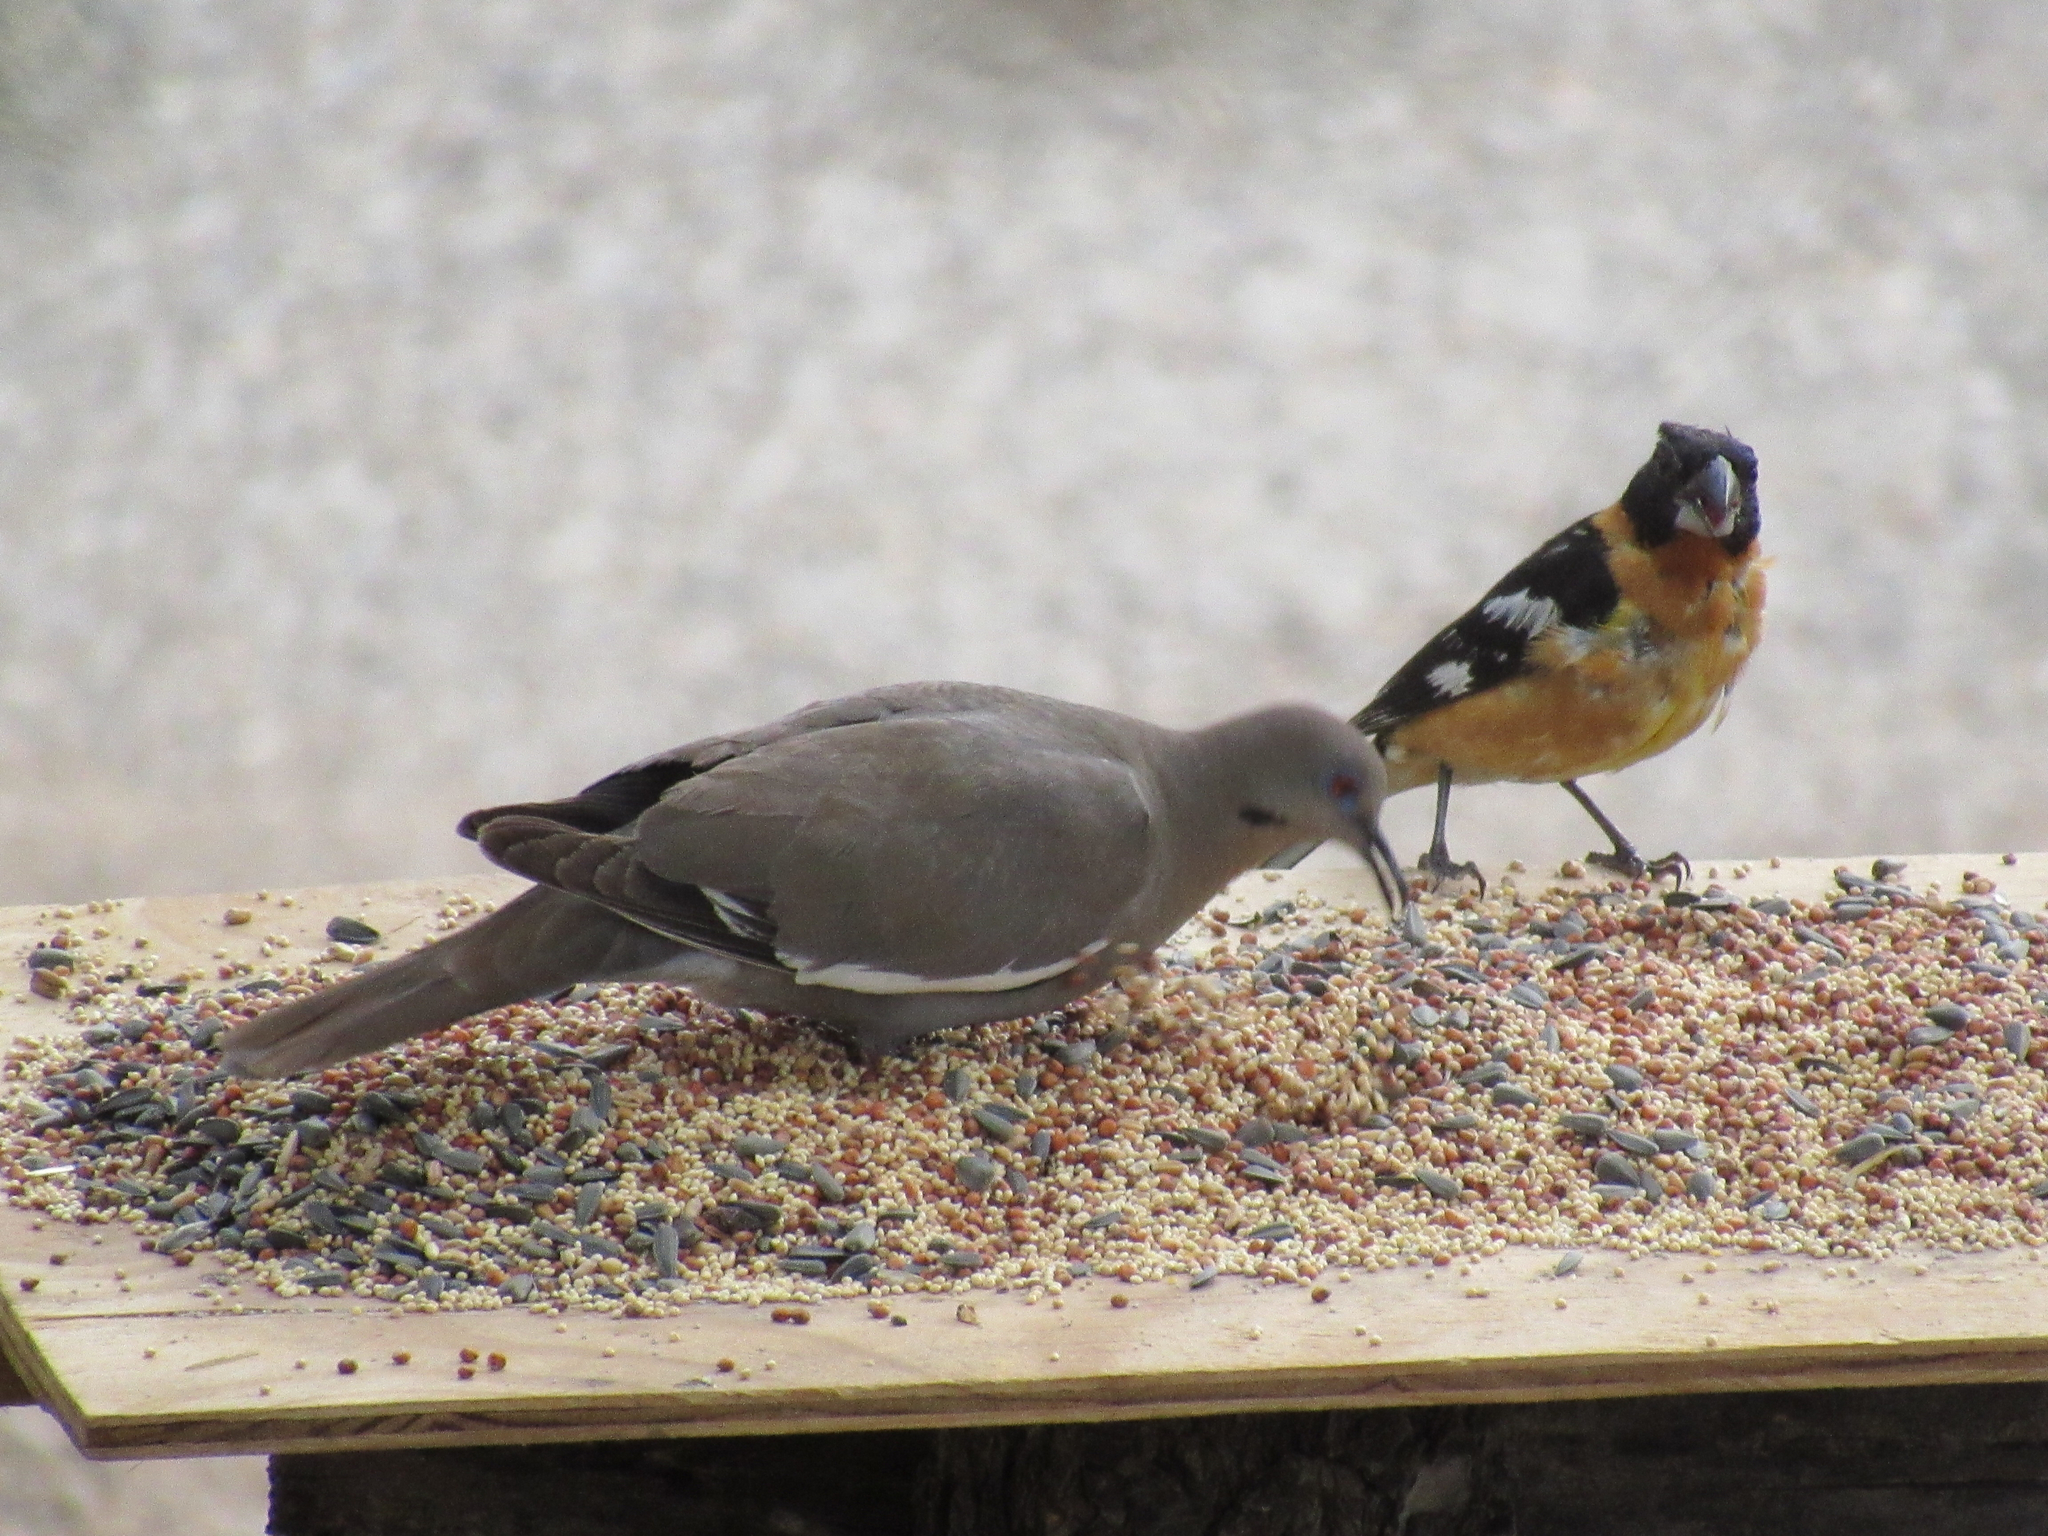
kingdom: Animalia
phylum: Chordata
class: Aves
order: Columbiformes
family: Columbidae
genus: Zenaida
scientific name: Zenaida asiatica
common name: White-winged dove
